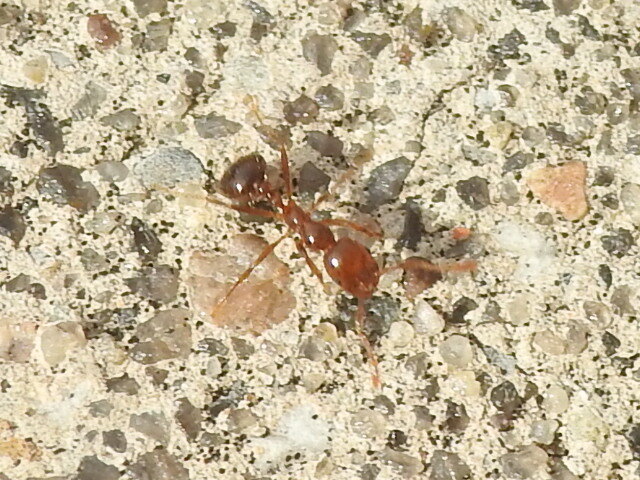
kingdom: Animalia
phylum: Arthropoda
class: Insecta
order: Hymenoptera
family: Formicidae
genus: Solenopsis
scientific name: Solenopsis invicta
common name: Red imported fire ant
